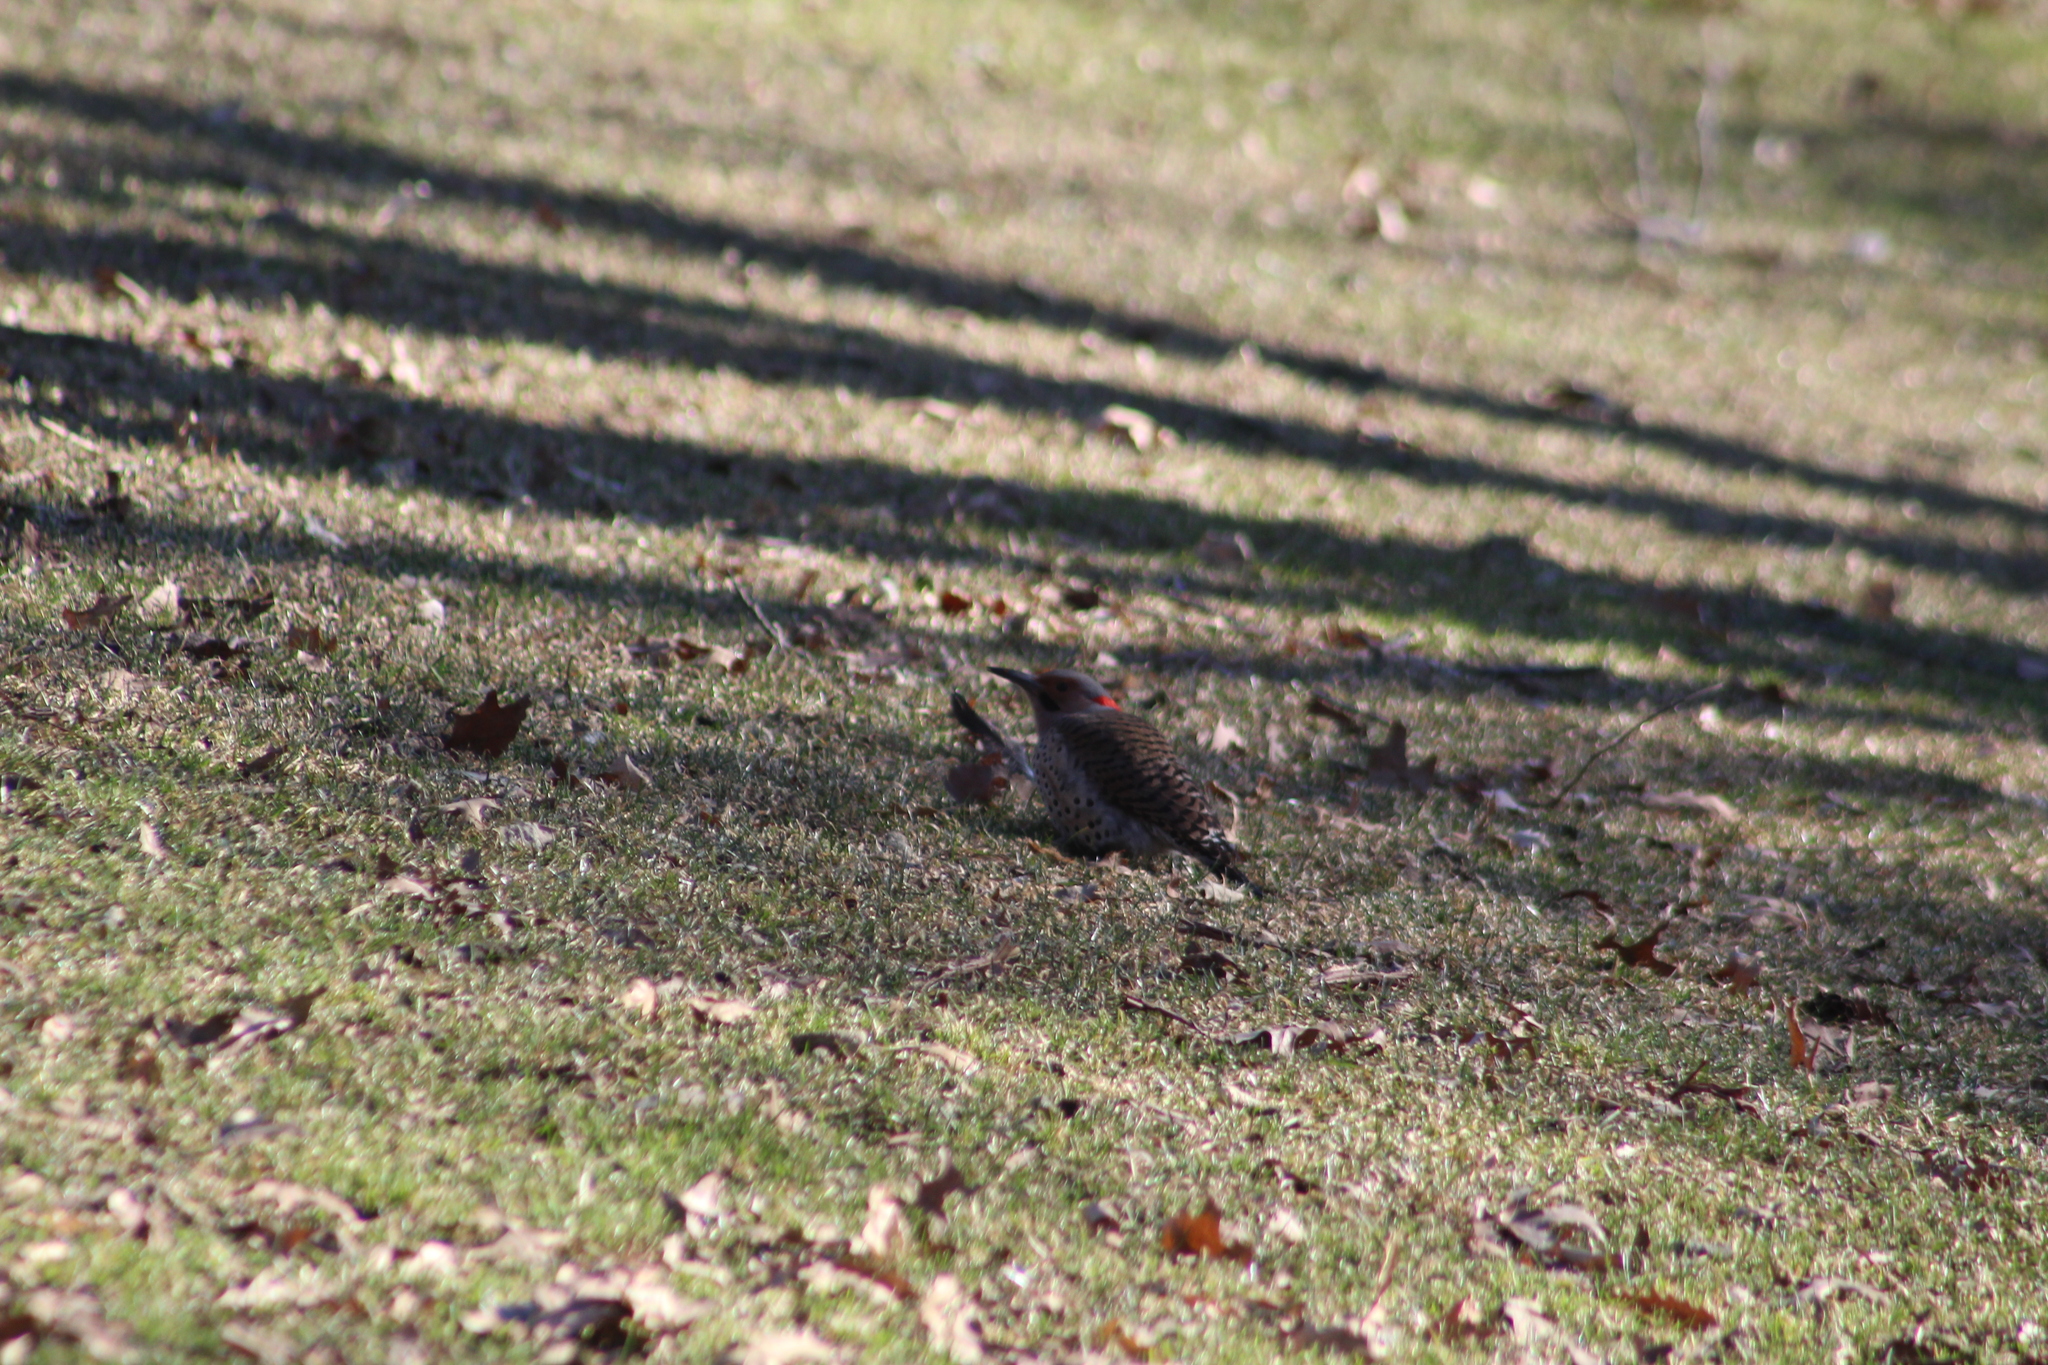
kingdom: Animalia
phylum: Chordata
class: Aves
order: Piciformes
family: Picidae
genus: Colaptes
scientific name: Colaptes auratus
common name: Northern flicker
